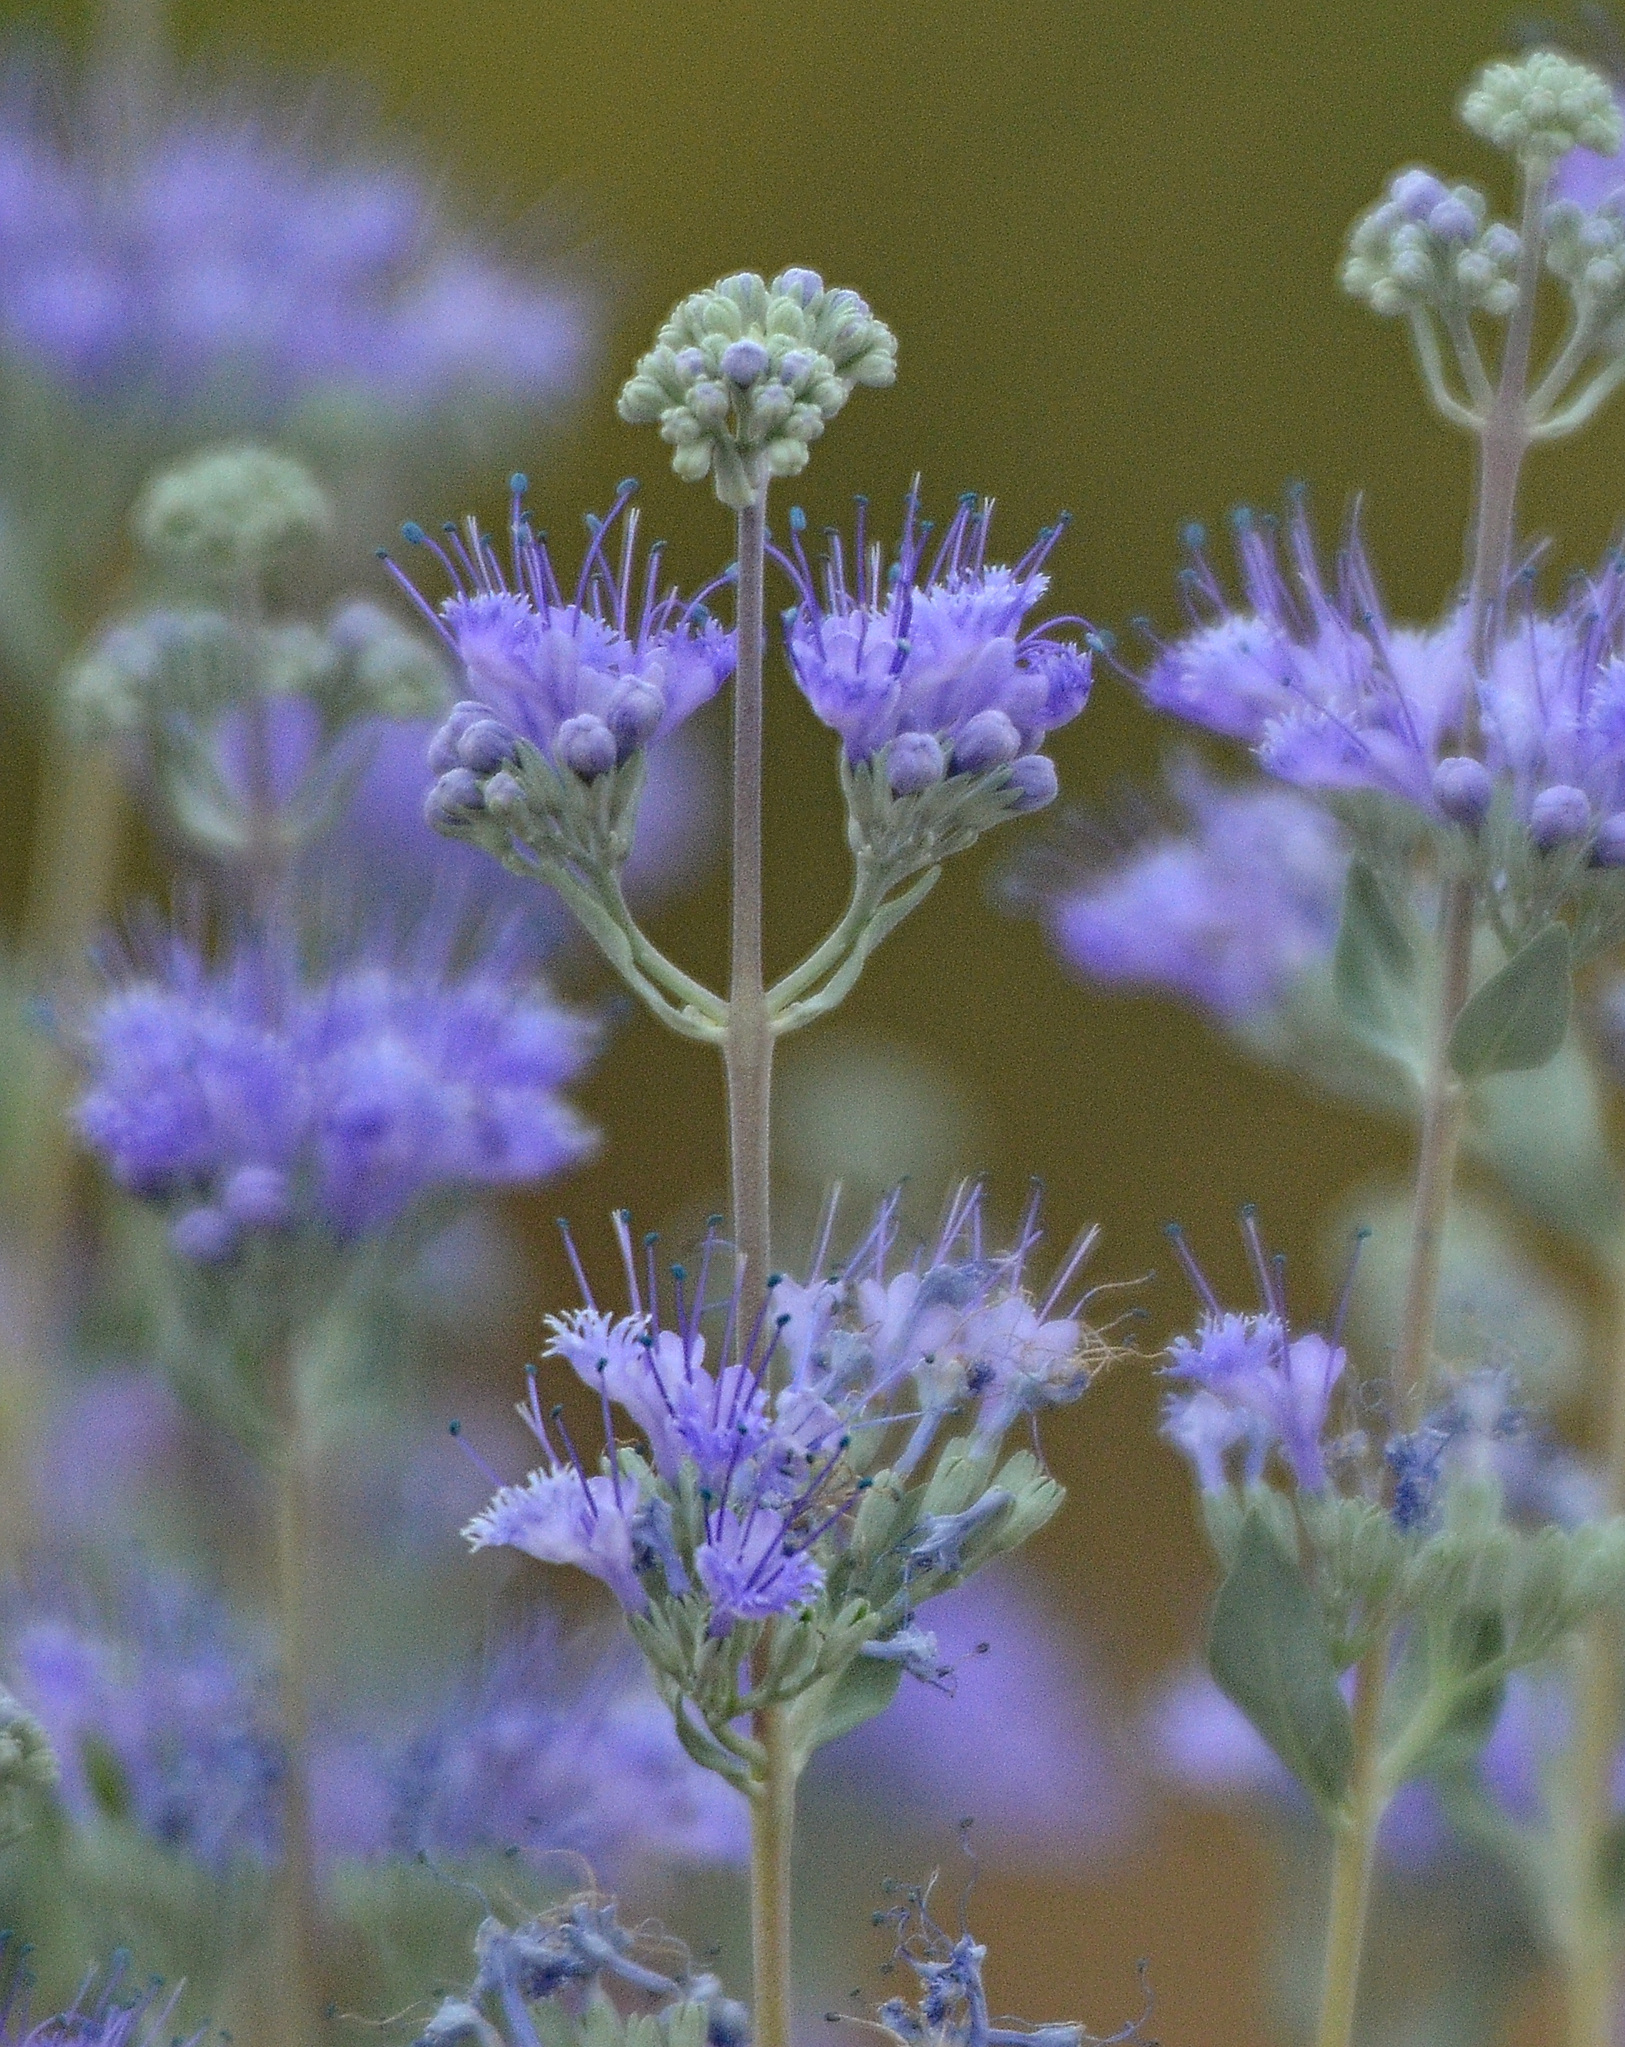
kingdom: Plantae
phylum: Tracheophyta
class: Magnoliopsida
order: Lamiales
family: Lamiaceae
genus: Caryopteris
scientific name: Caryopteris mongholica
